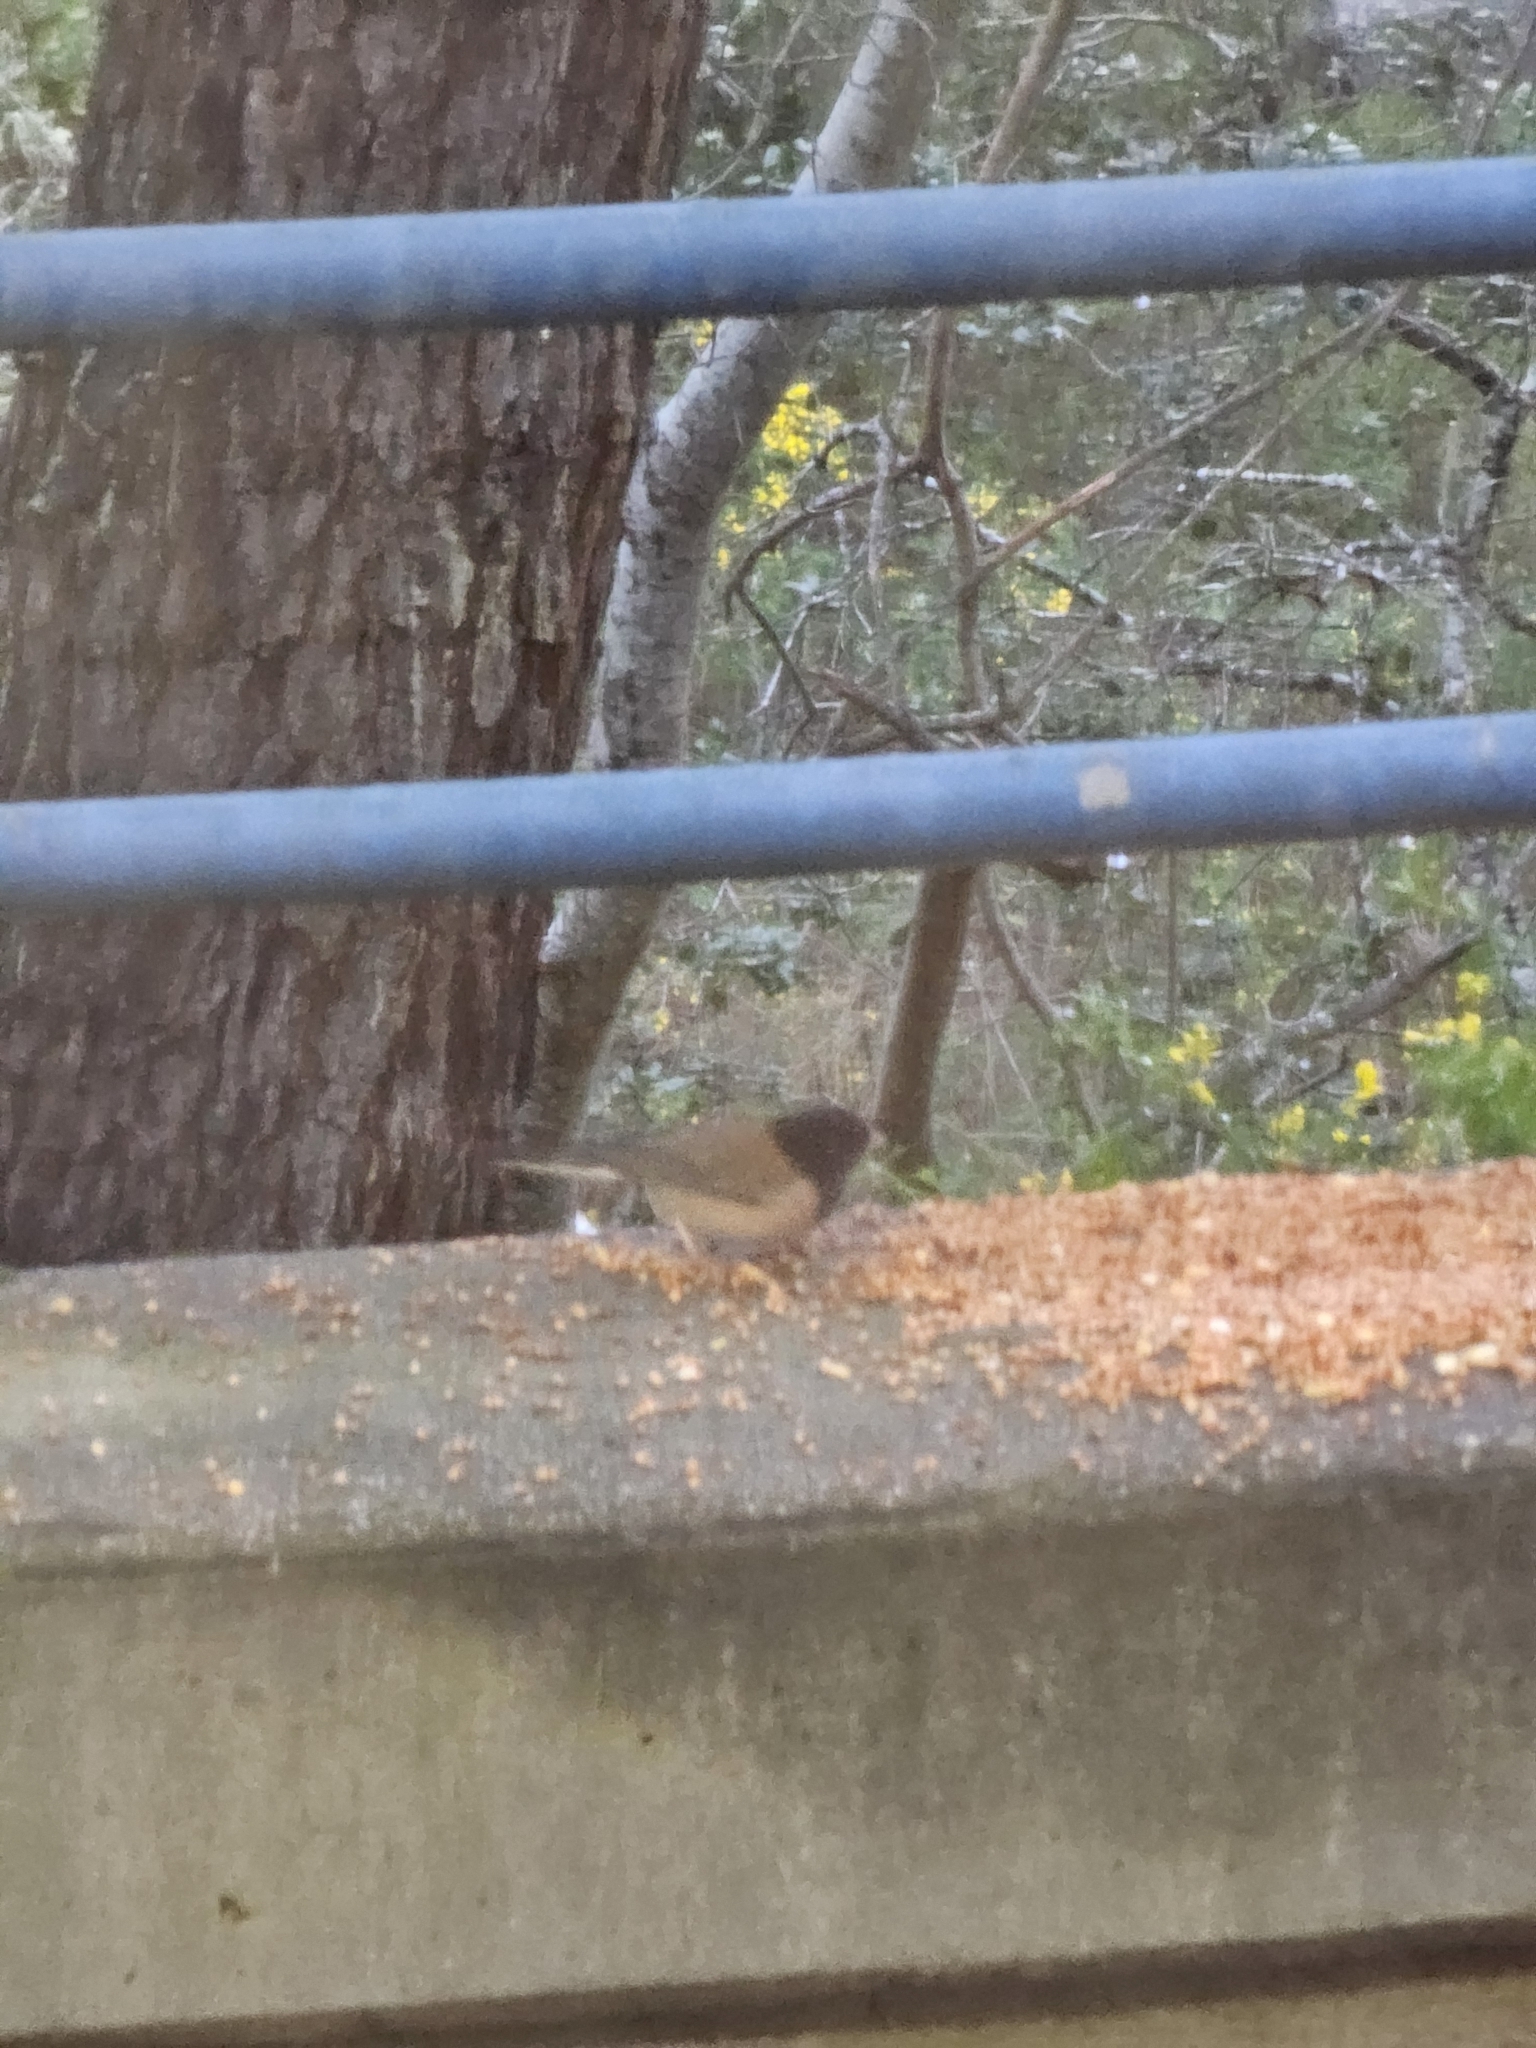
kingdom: Animalia
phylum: Chordata
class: Aves
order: Passeriformes
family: Passerellidae
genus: Junco
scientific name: Junco hyemalis
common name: Dark-eyed junco
